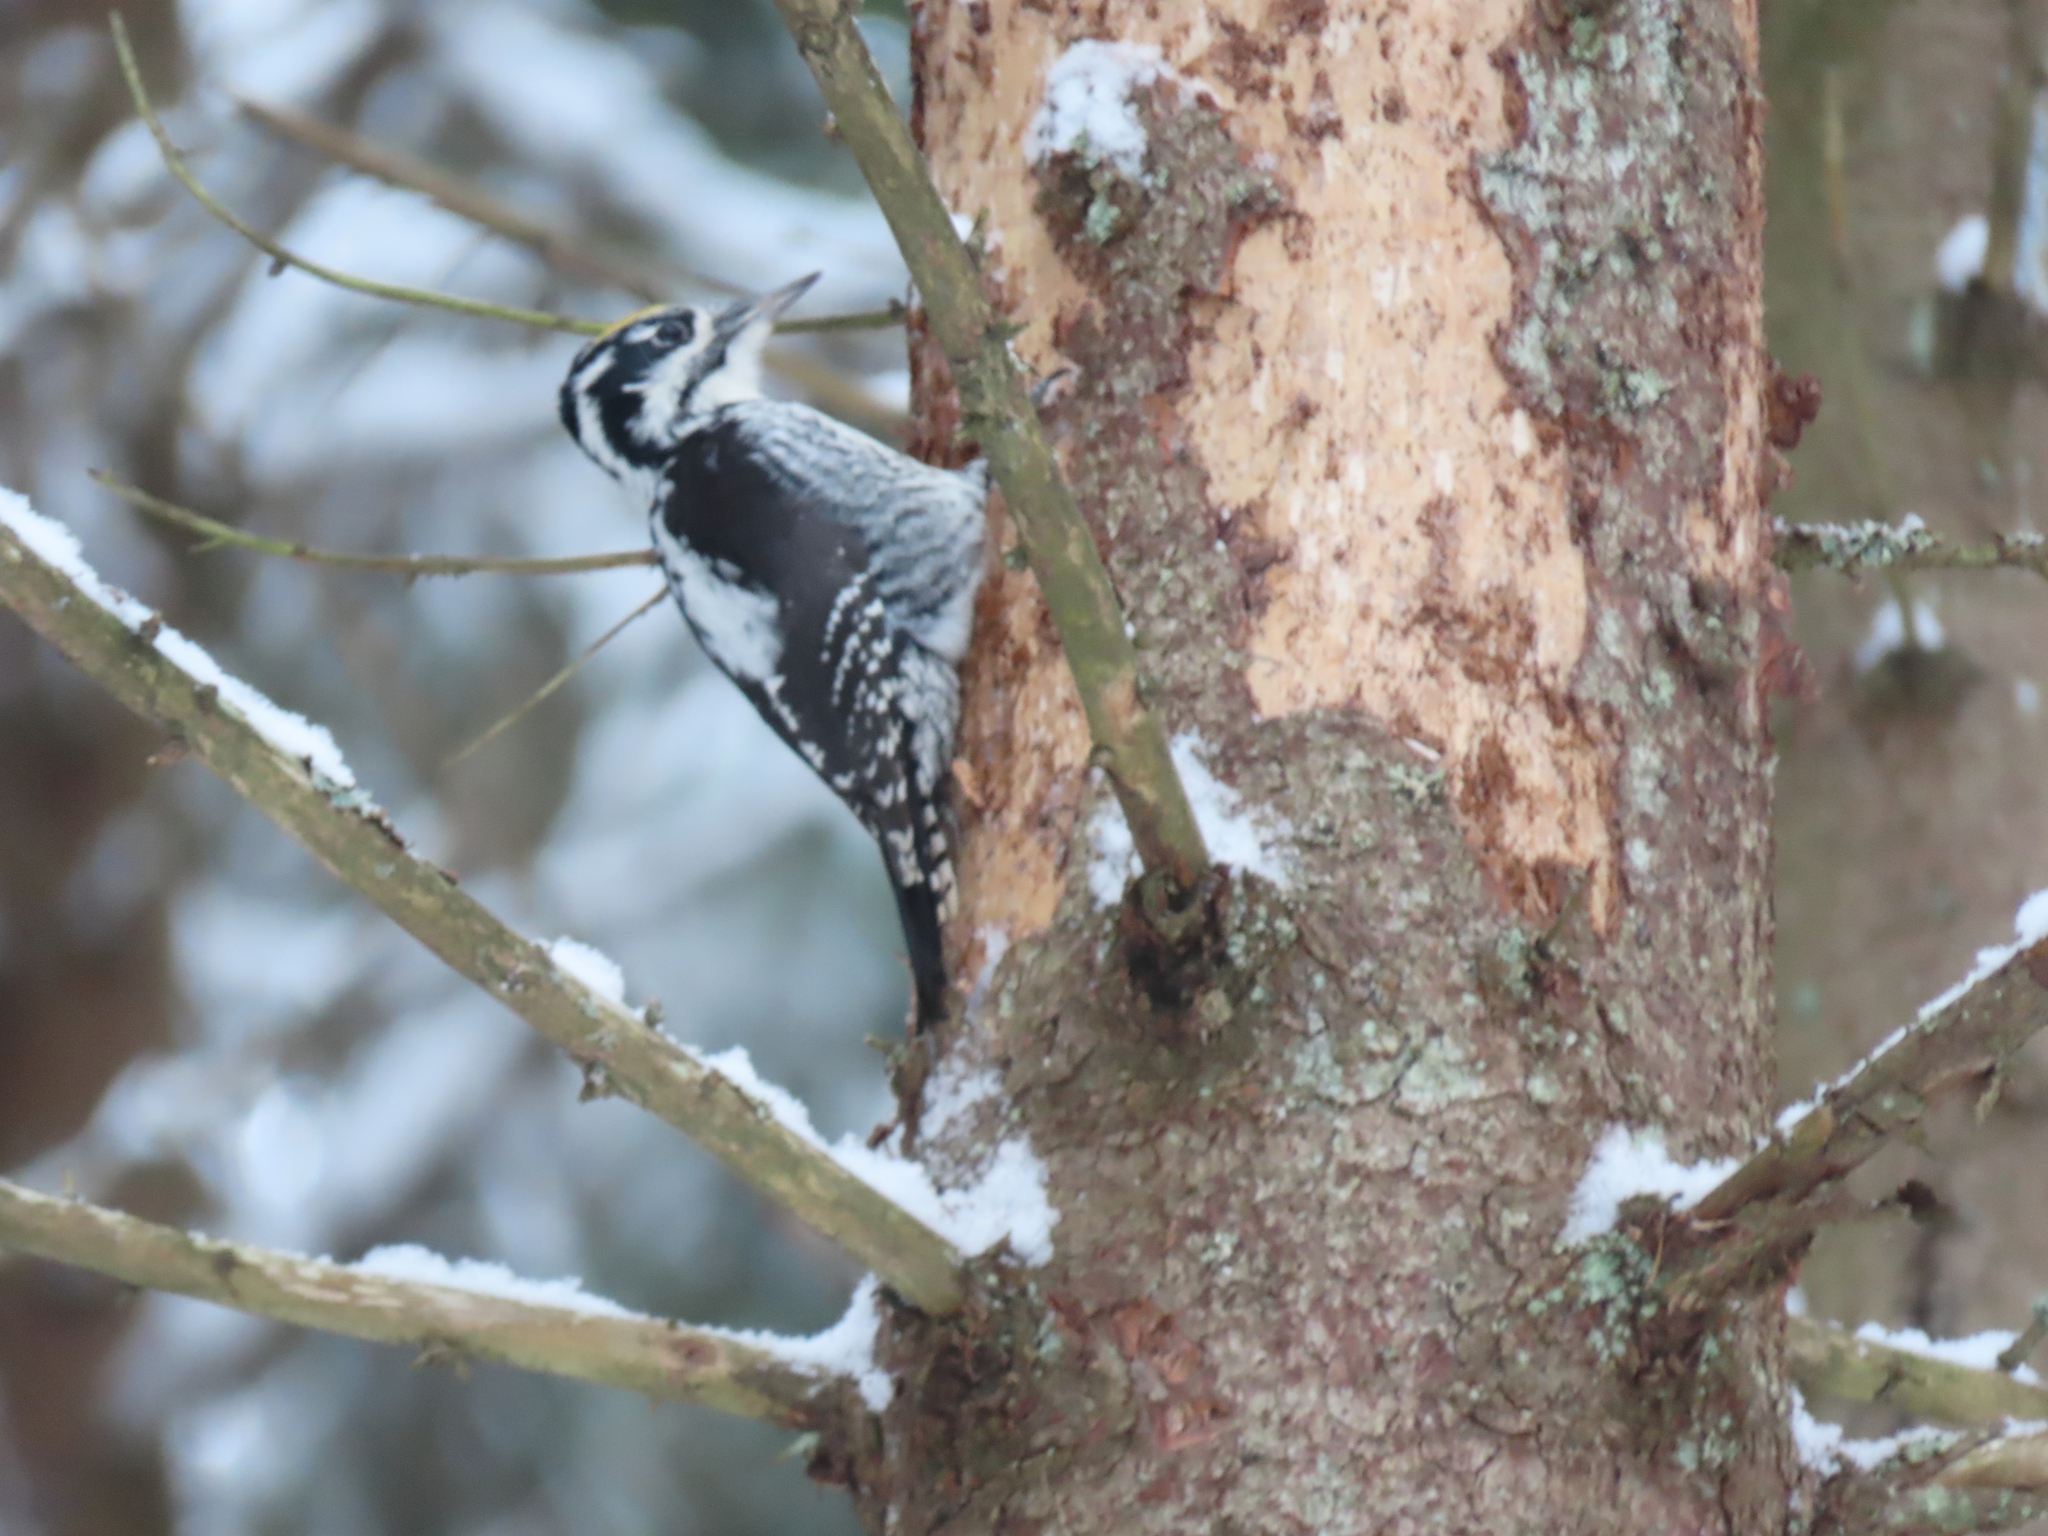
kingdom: Animalia
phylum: Chordata
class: Aves
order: Piciformes
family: Picidae
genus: Picoides
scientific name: Picoides tridactylus
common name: Eurasian three-toed woodpecker
